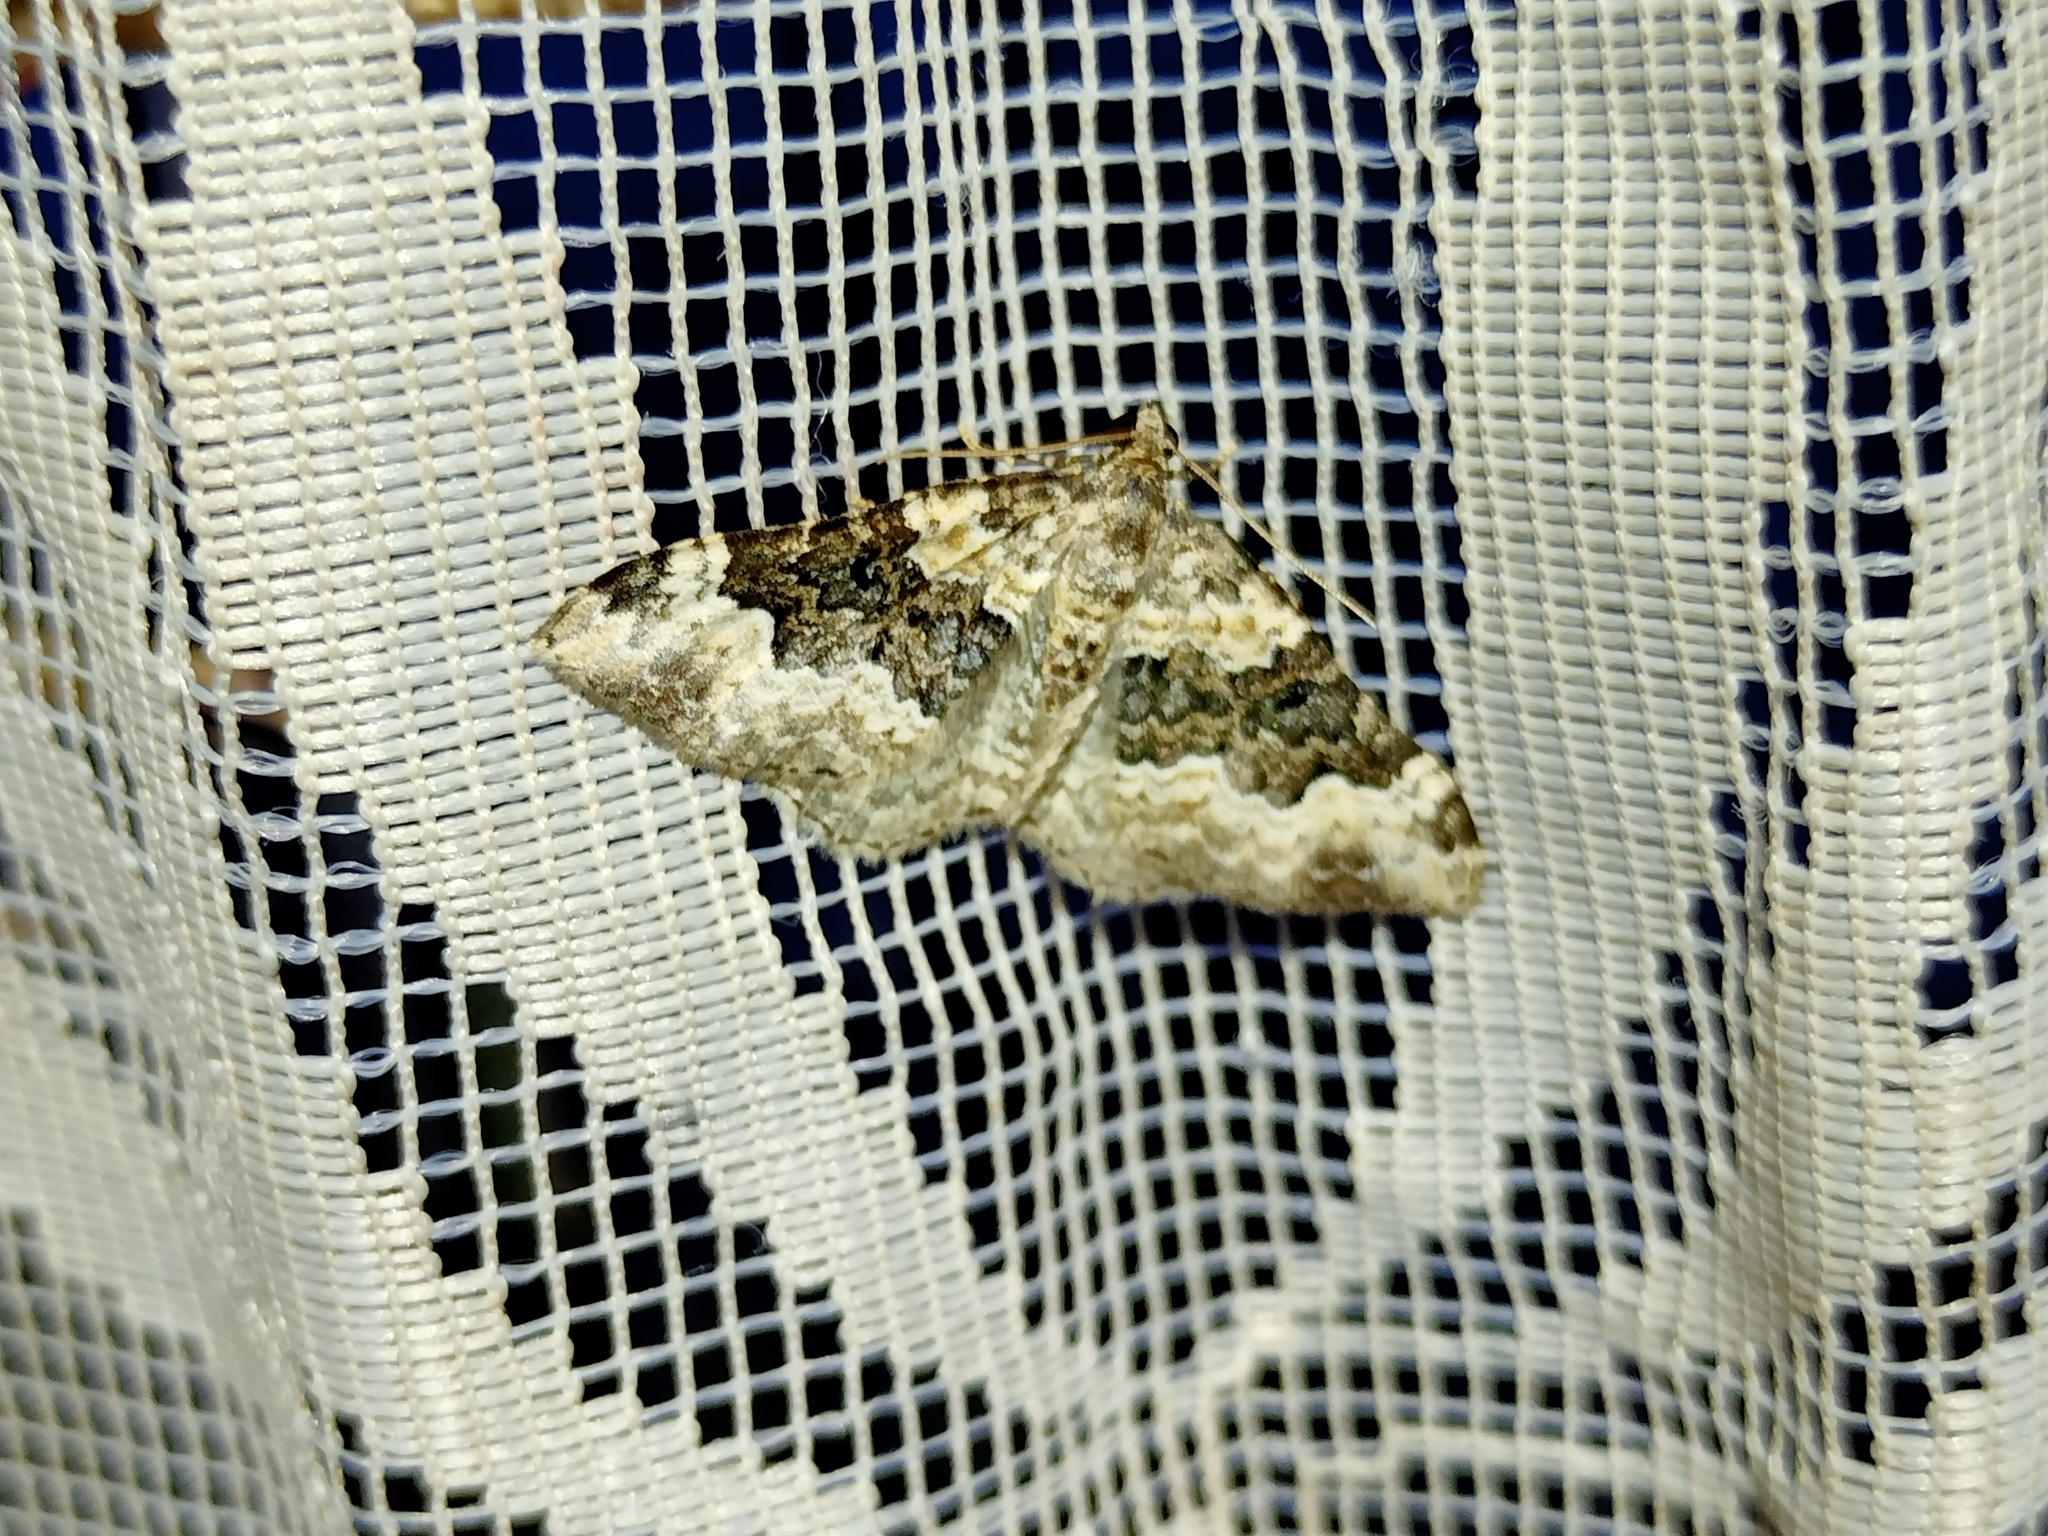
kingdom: Animalia
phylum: Arthropoda
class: Insecta
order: Lepidoptera
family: Geometridae
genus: Epirrhoe
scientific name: Epirrhoe galiata
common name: Galium carpet
